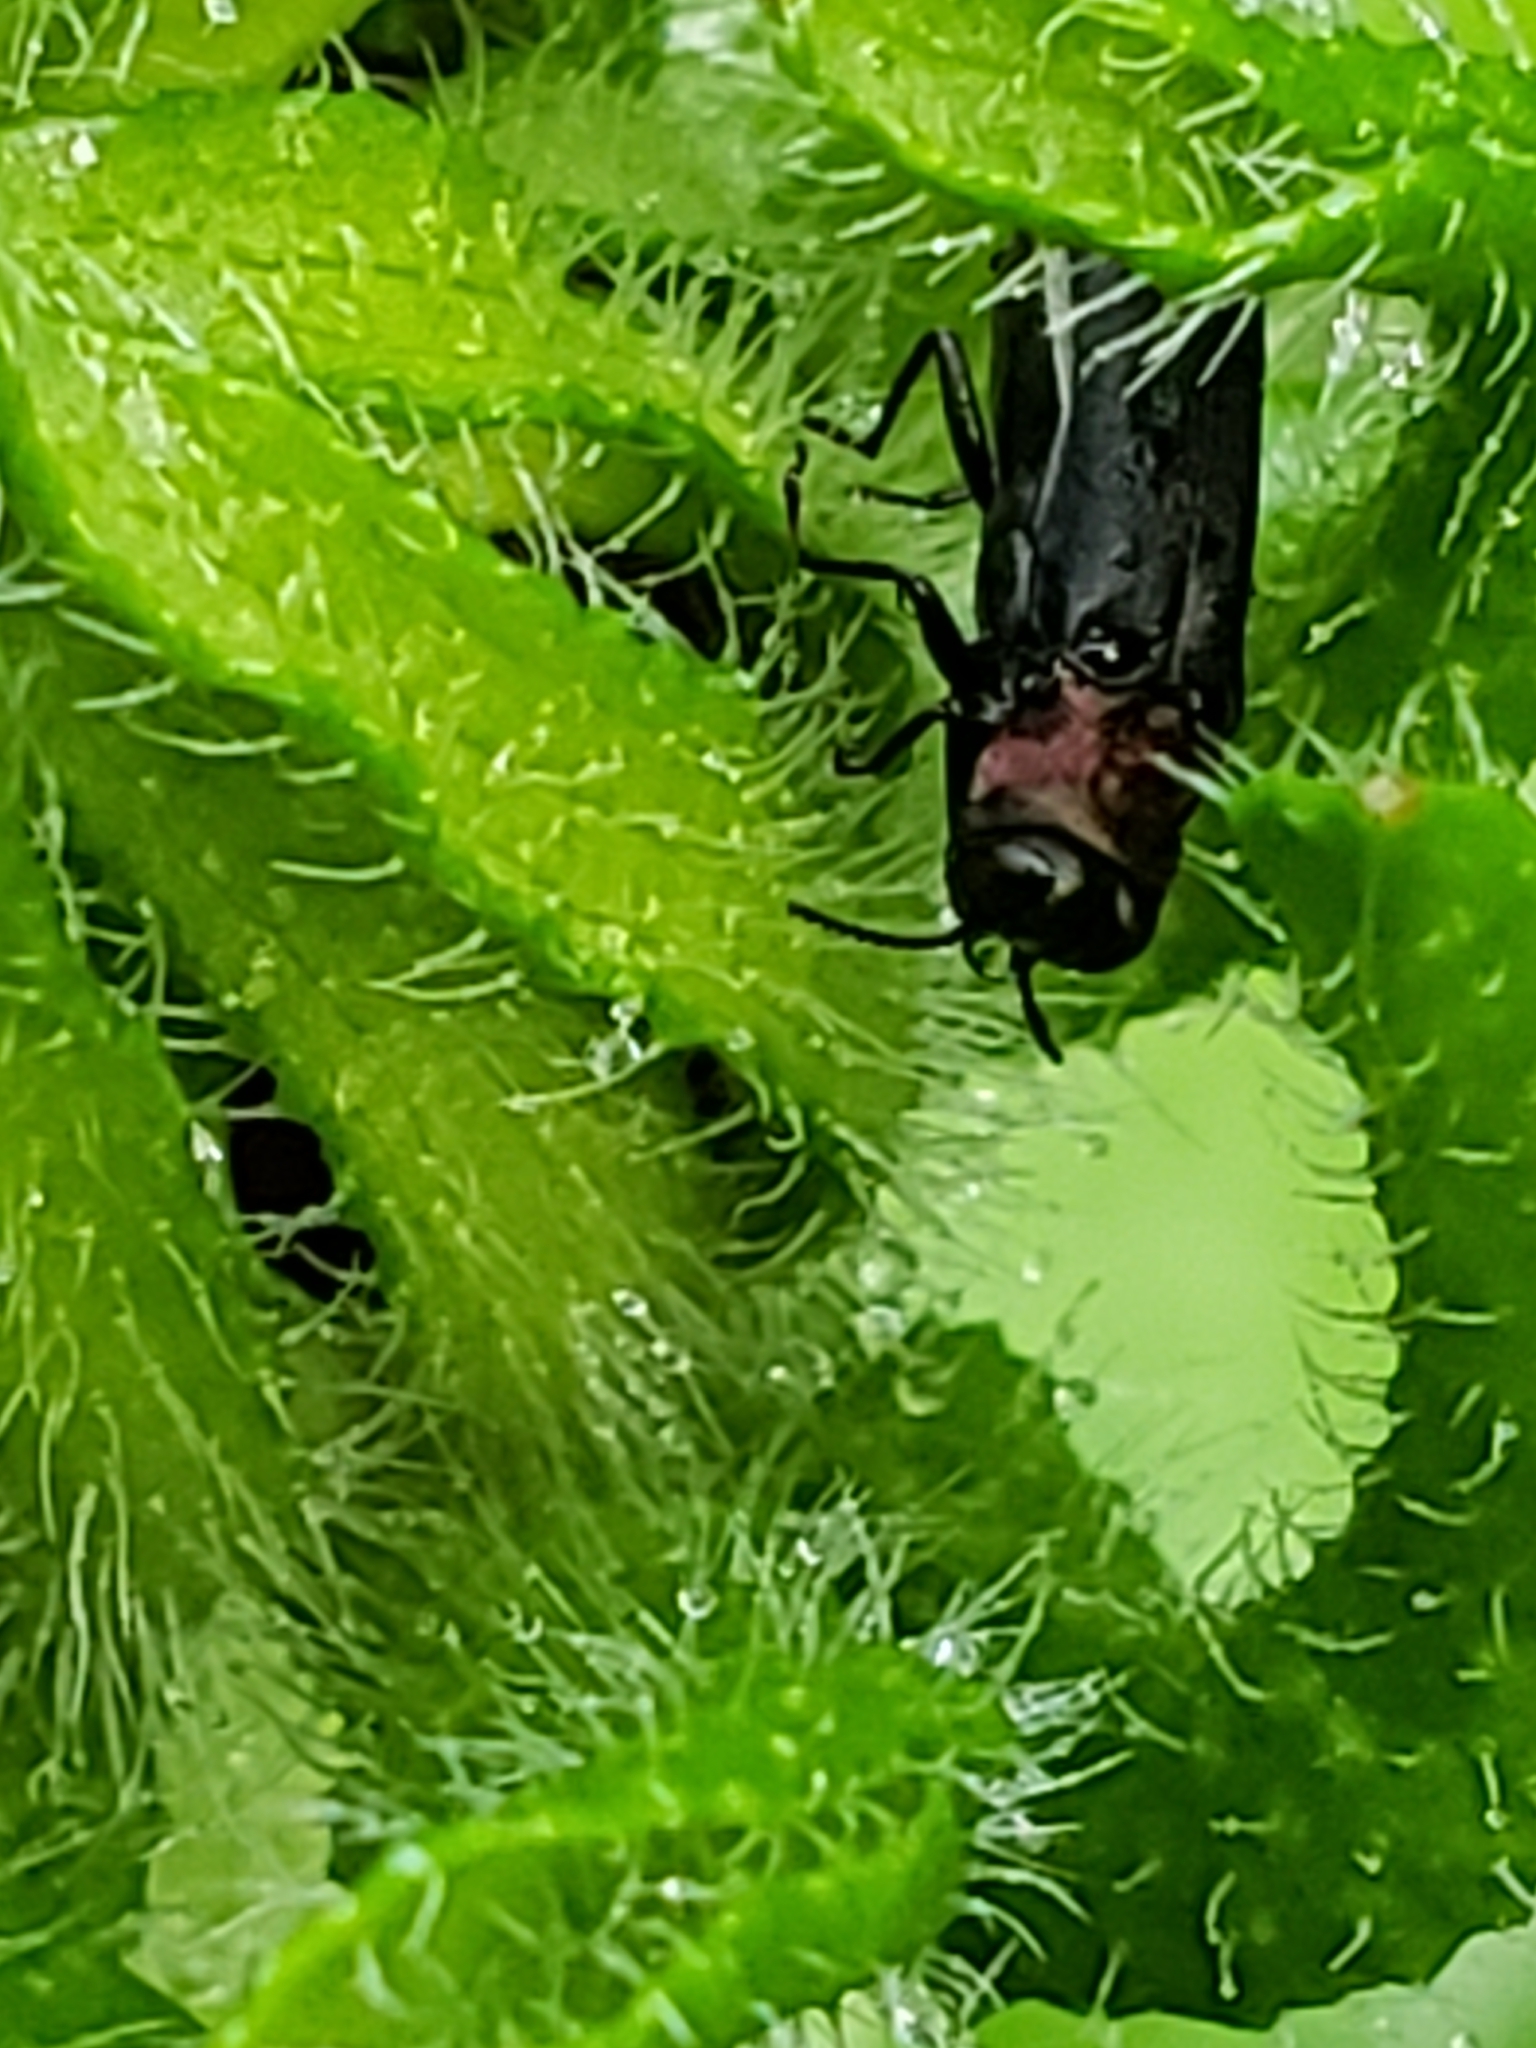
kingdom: Animalia
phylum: Arthropoda
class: Insecta
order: Coleoptera
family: Buprestidae
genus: Agrilus
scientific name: Agrilus ruficollis
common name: Red-necked cane borer beetle
